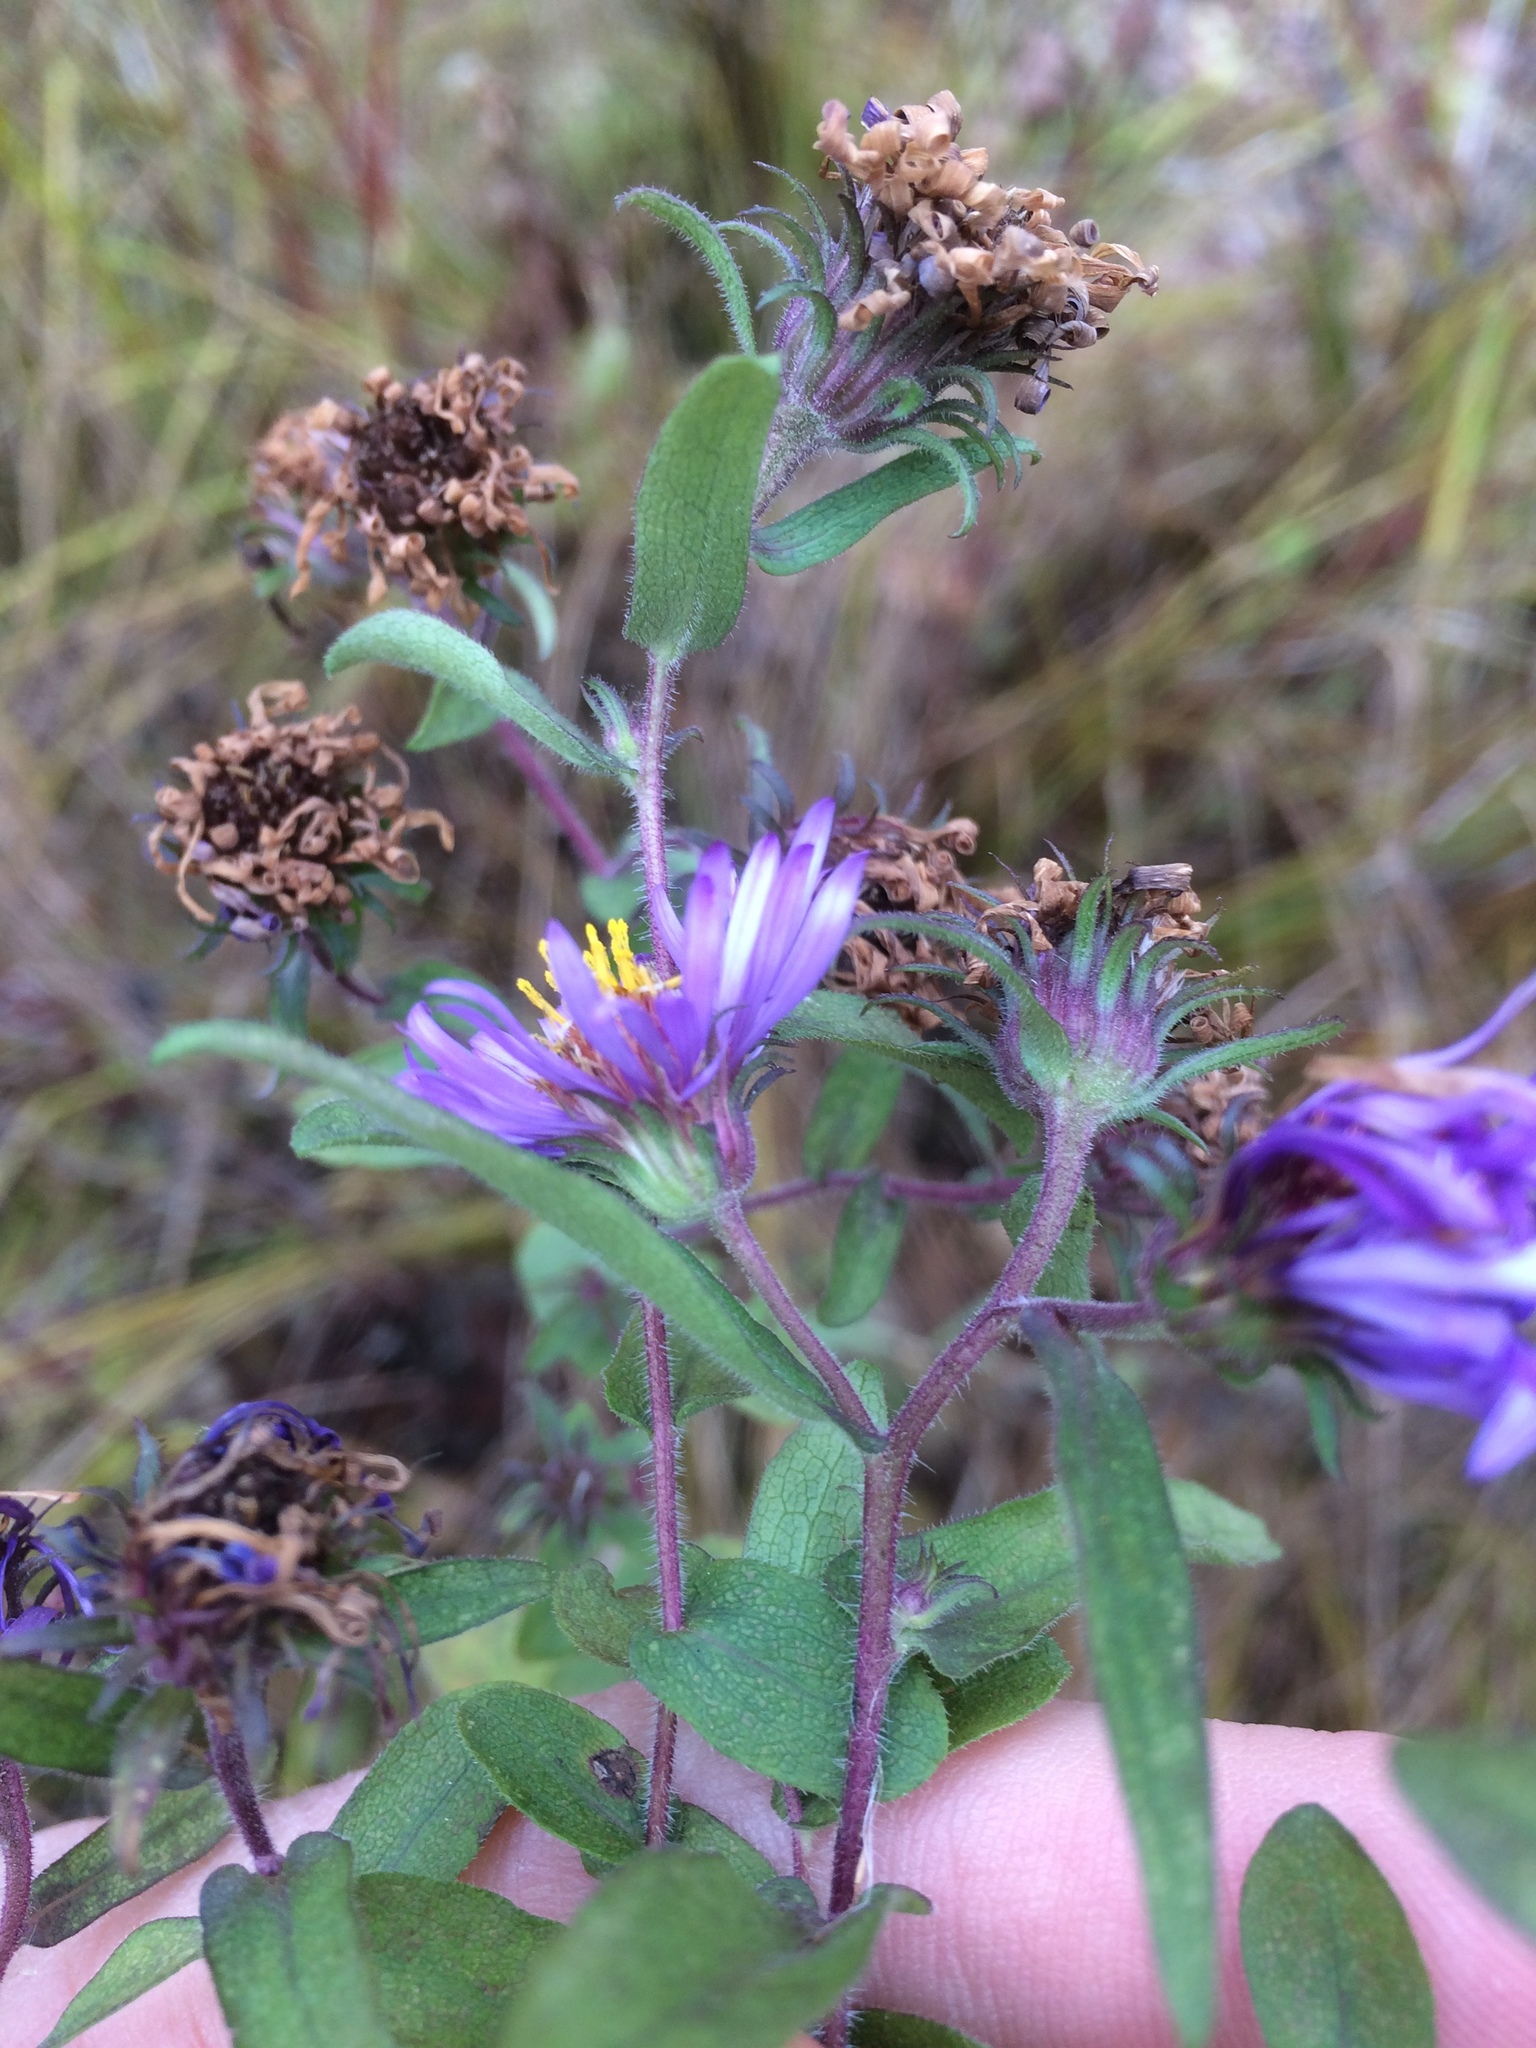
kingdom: Plantae
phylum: Tracheophyta
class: Magnoliopsida
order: Asterales
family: Asteraceae
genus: Symphyotrichum
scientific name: Symphyotrichum novae-angliae
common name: Michaelmas daisy
